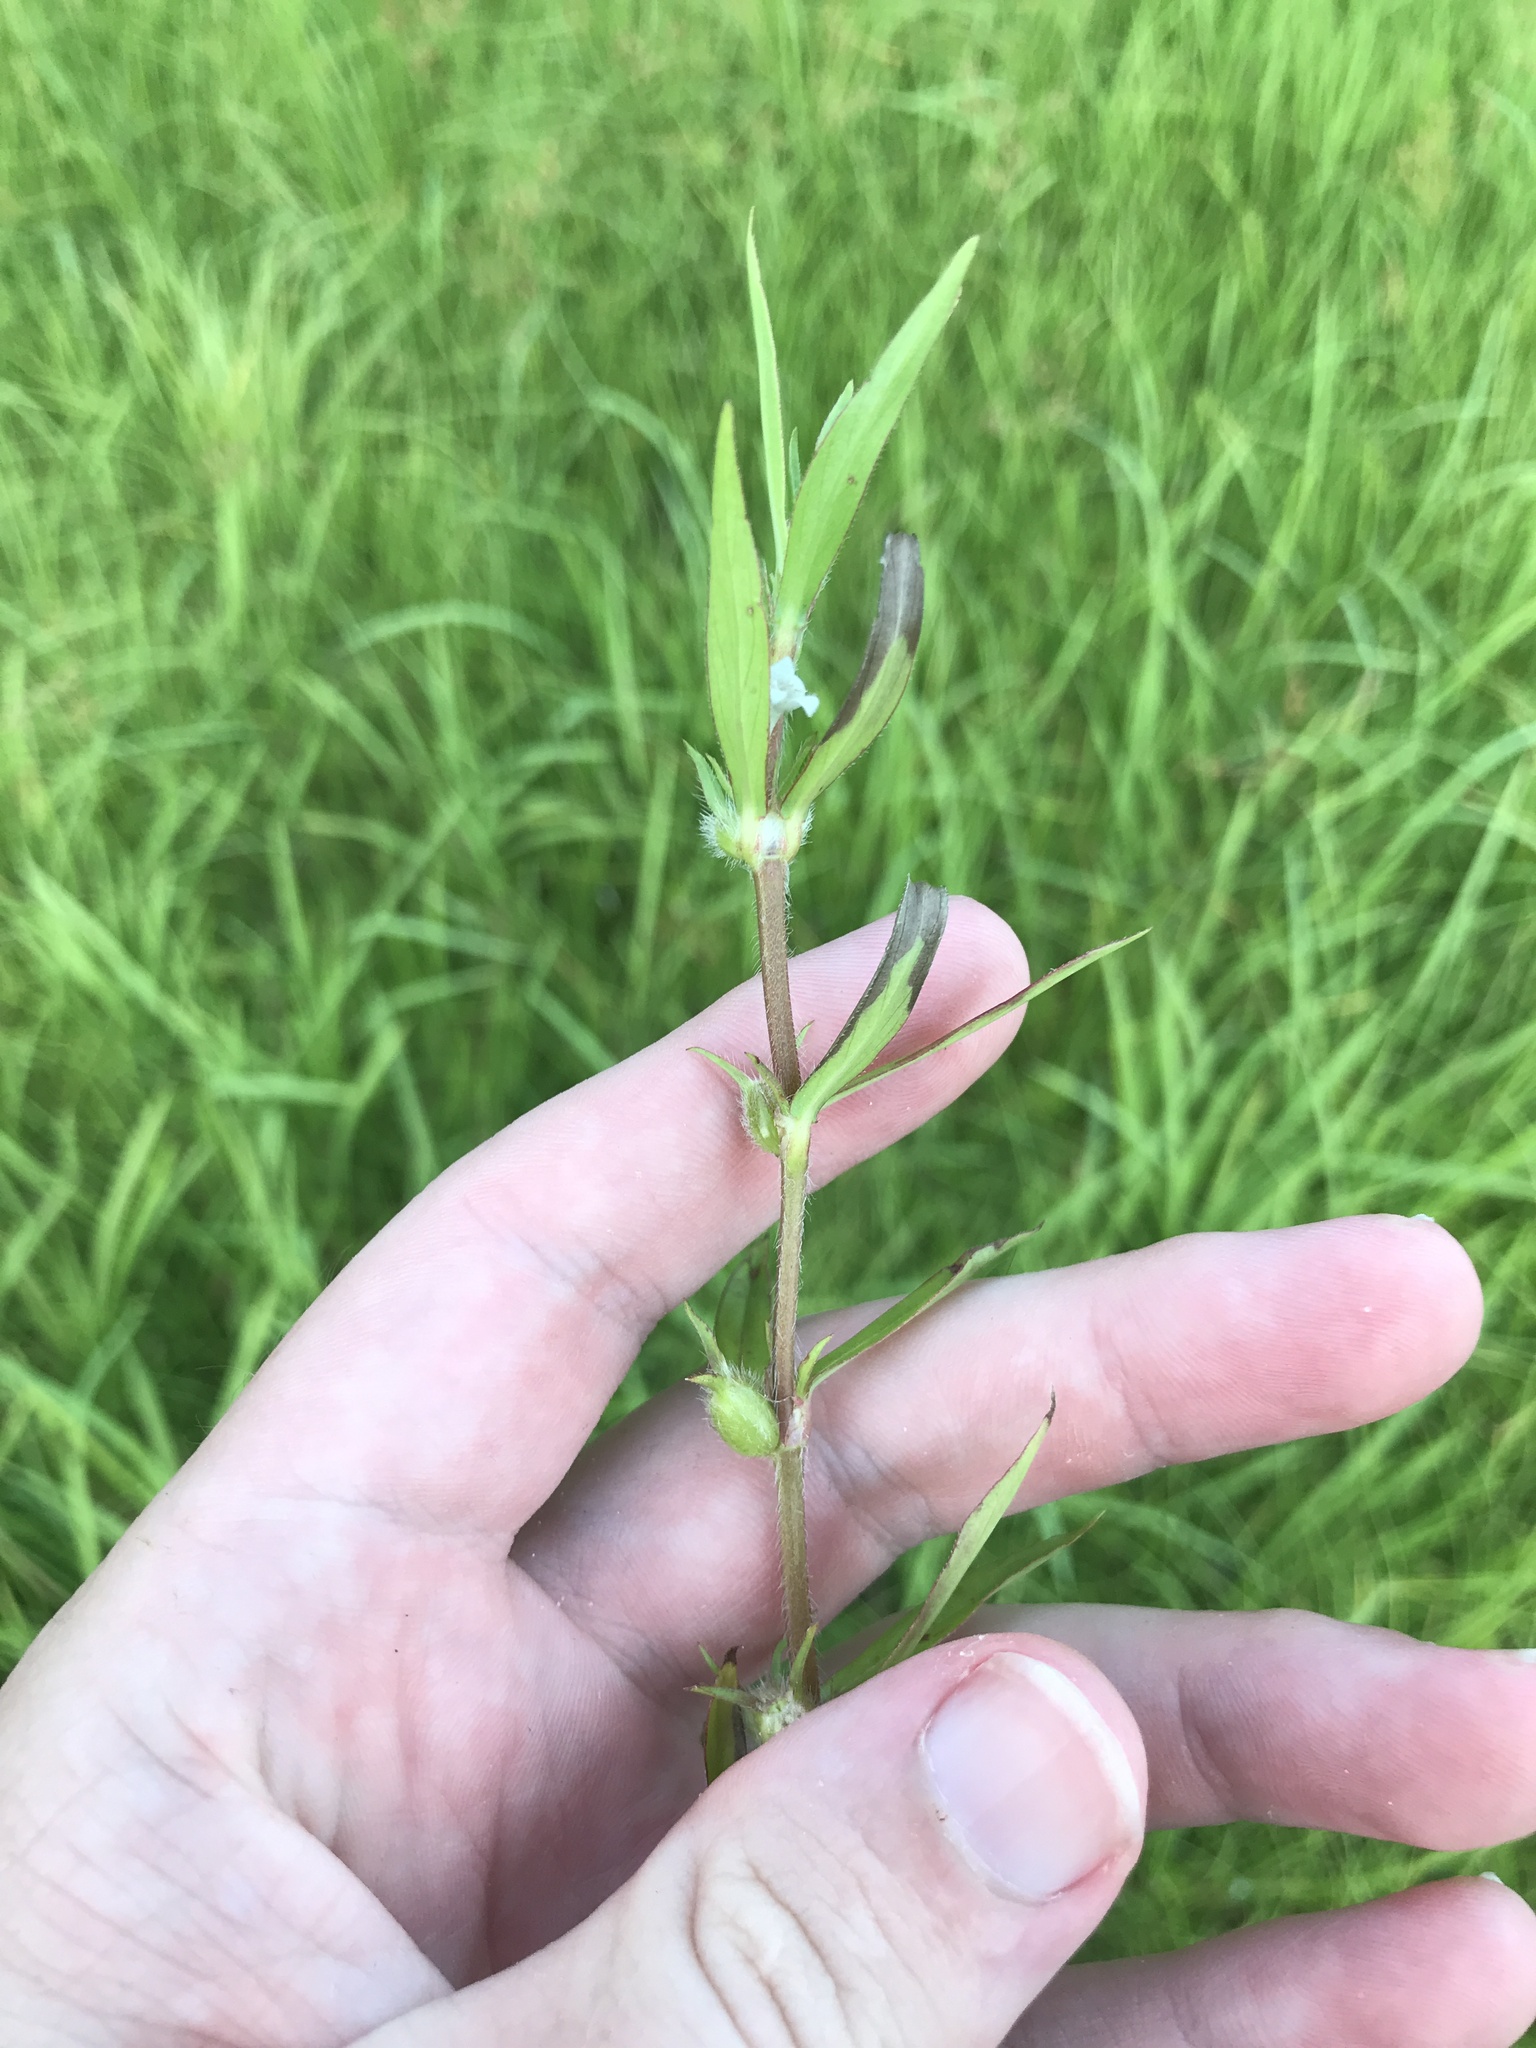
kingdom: Plantae
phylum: Tracheophyta
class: Magnoliopsida
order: Gentianales
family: Rubiaceae
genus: Diodia
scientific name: Diodia virginiana
